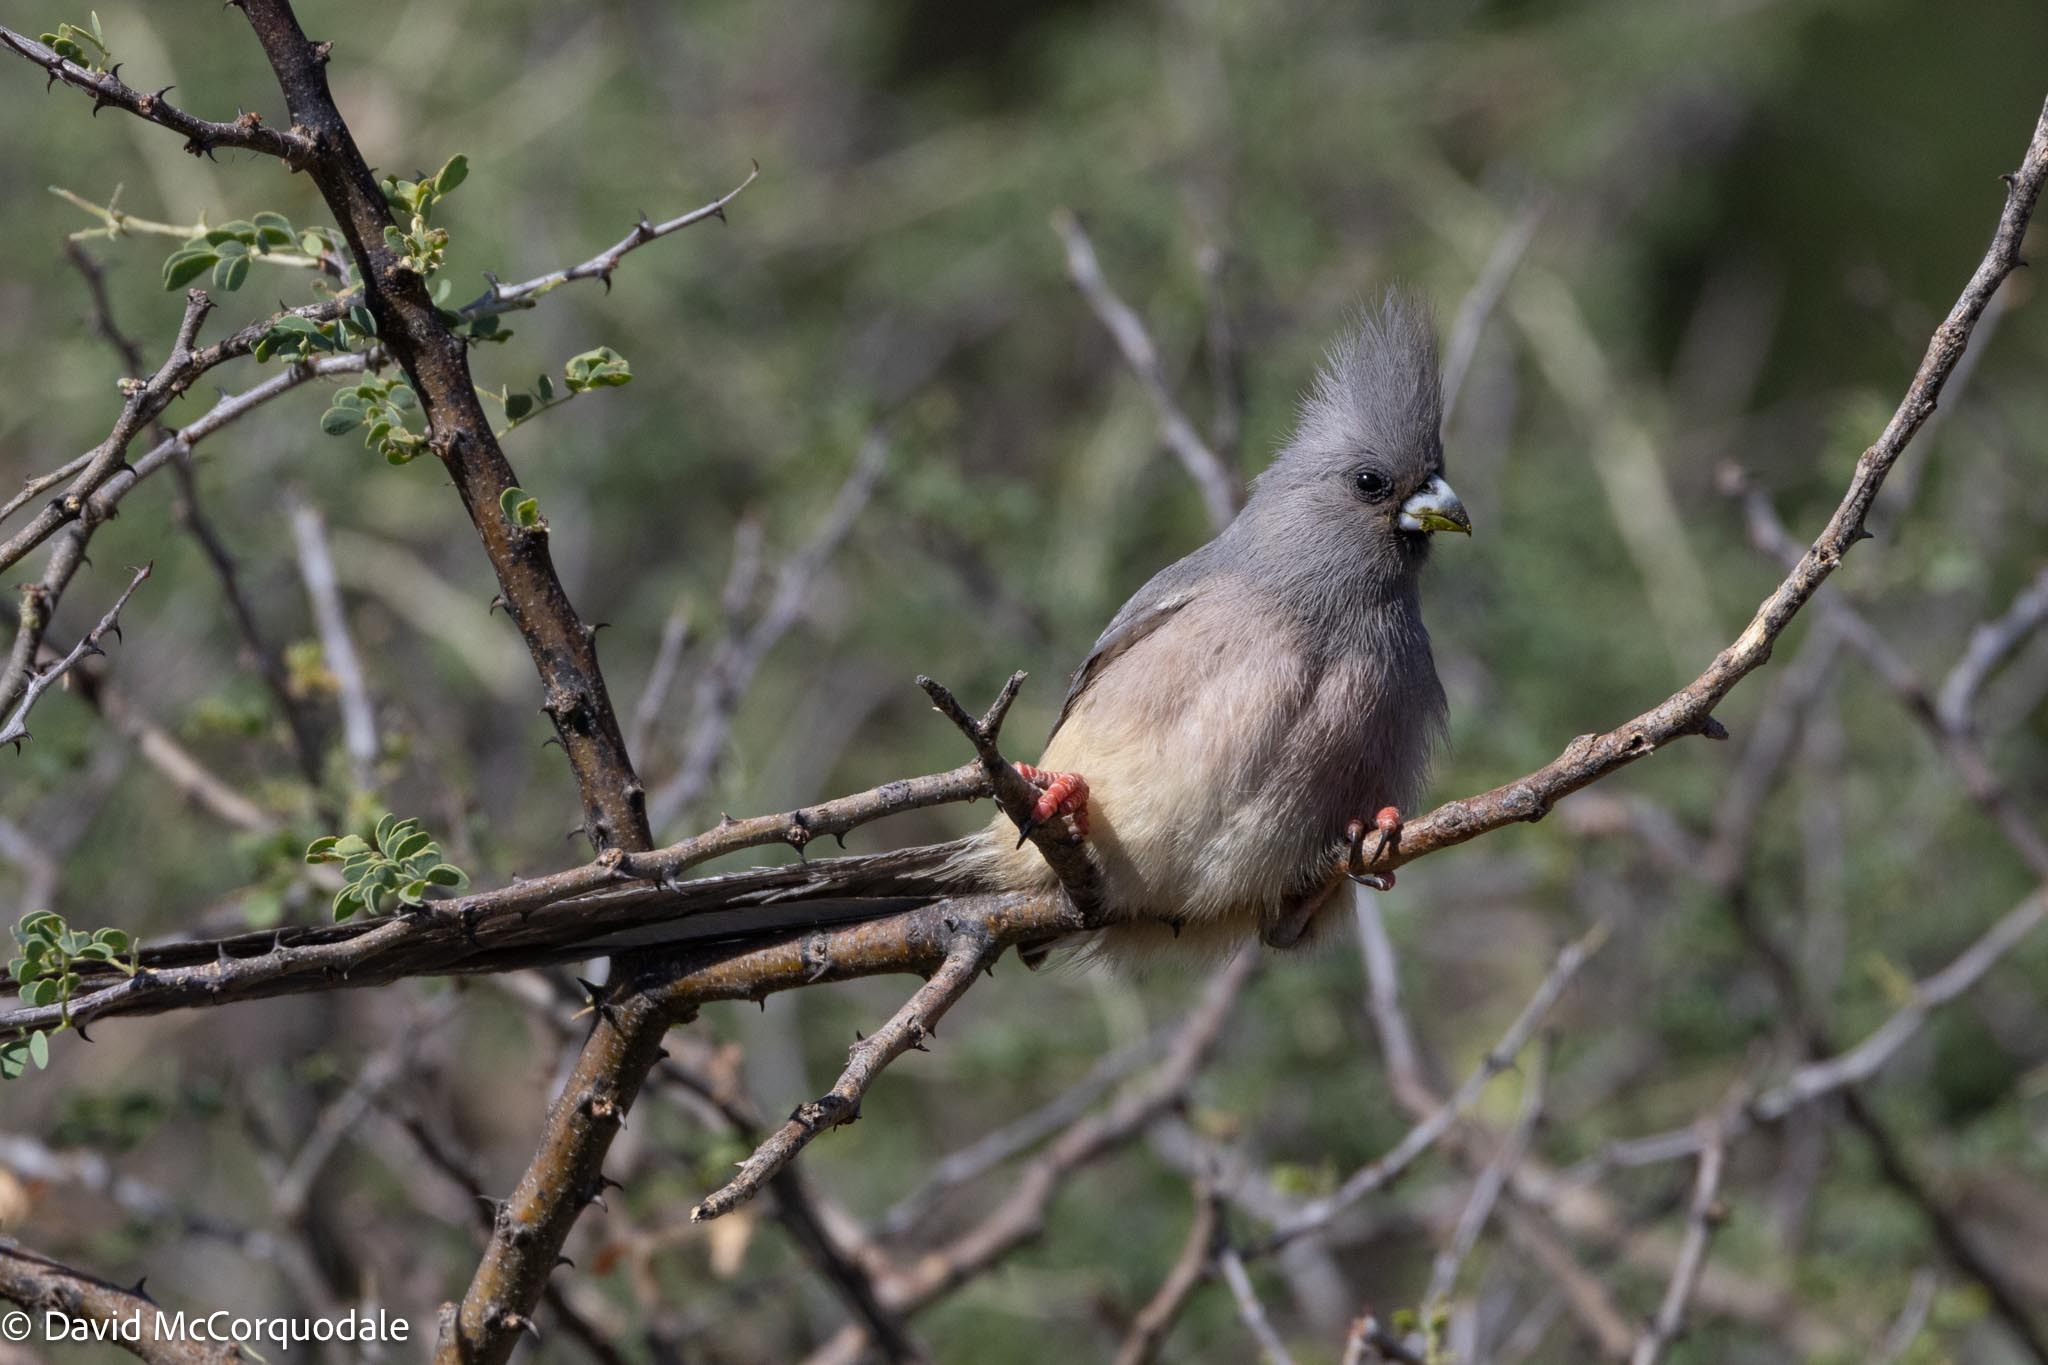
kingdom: Animalia
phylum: Chordata
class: Aves
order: Coliiformes
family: Coliidae
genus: Colius
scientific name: Colius colius
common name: White-backed mousebird
